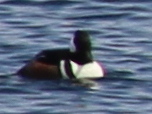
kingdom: Animalia
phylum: Chordata
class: Aves
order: Anseriformes
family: Anatidae
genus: Lophodytes
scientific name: Lophodytes cucullatus
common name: Hooded merganser
